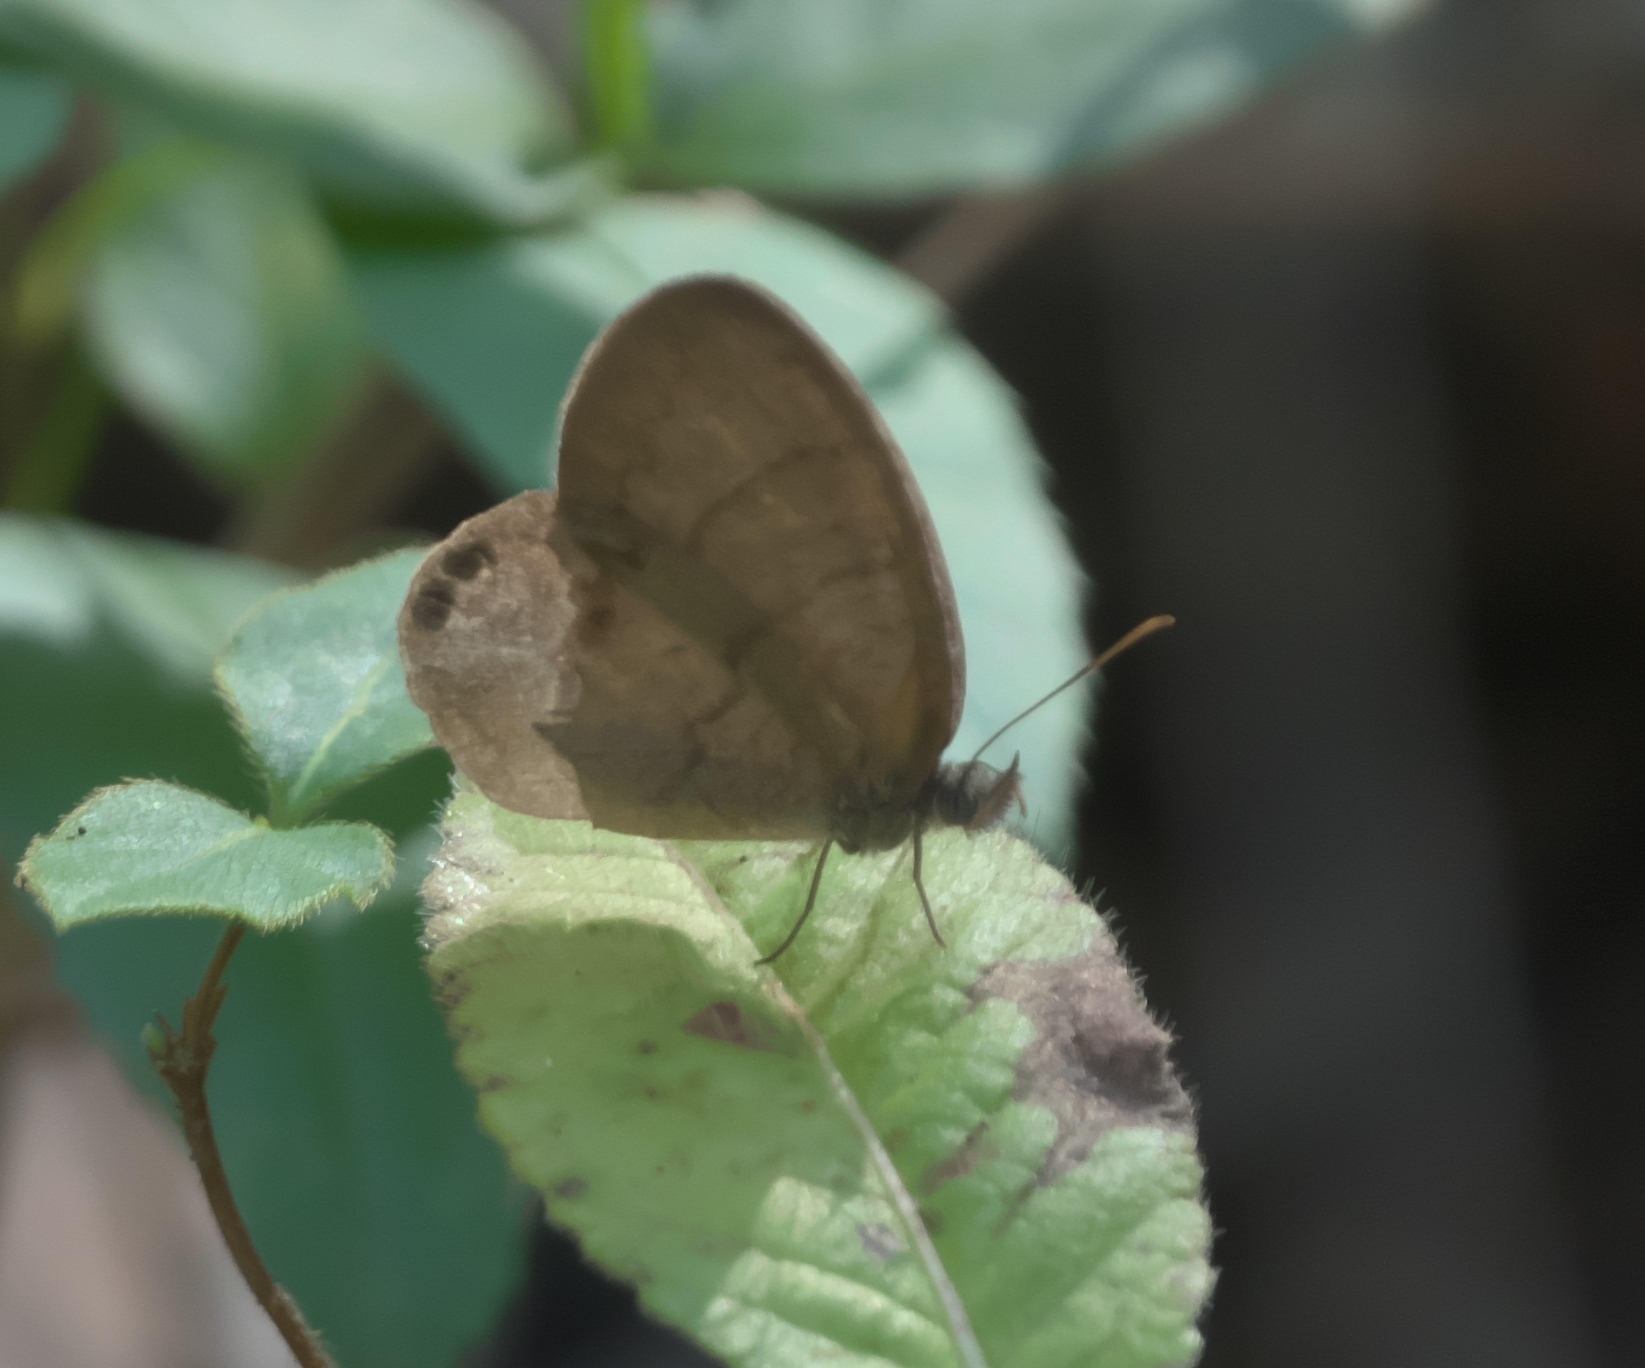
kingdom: Animalia
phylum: Arthropoda
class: Insecta
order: Lepidoptera
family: Nymphalidae
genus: Euptychia
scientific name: Euptychia cornelius
